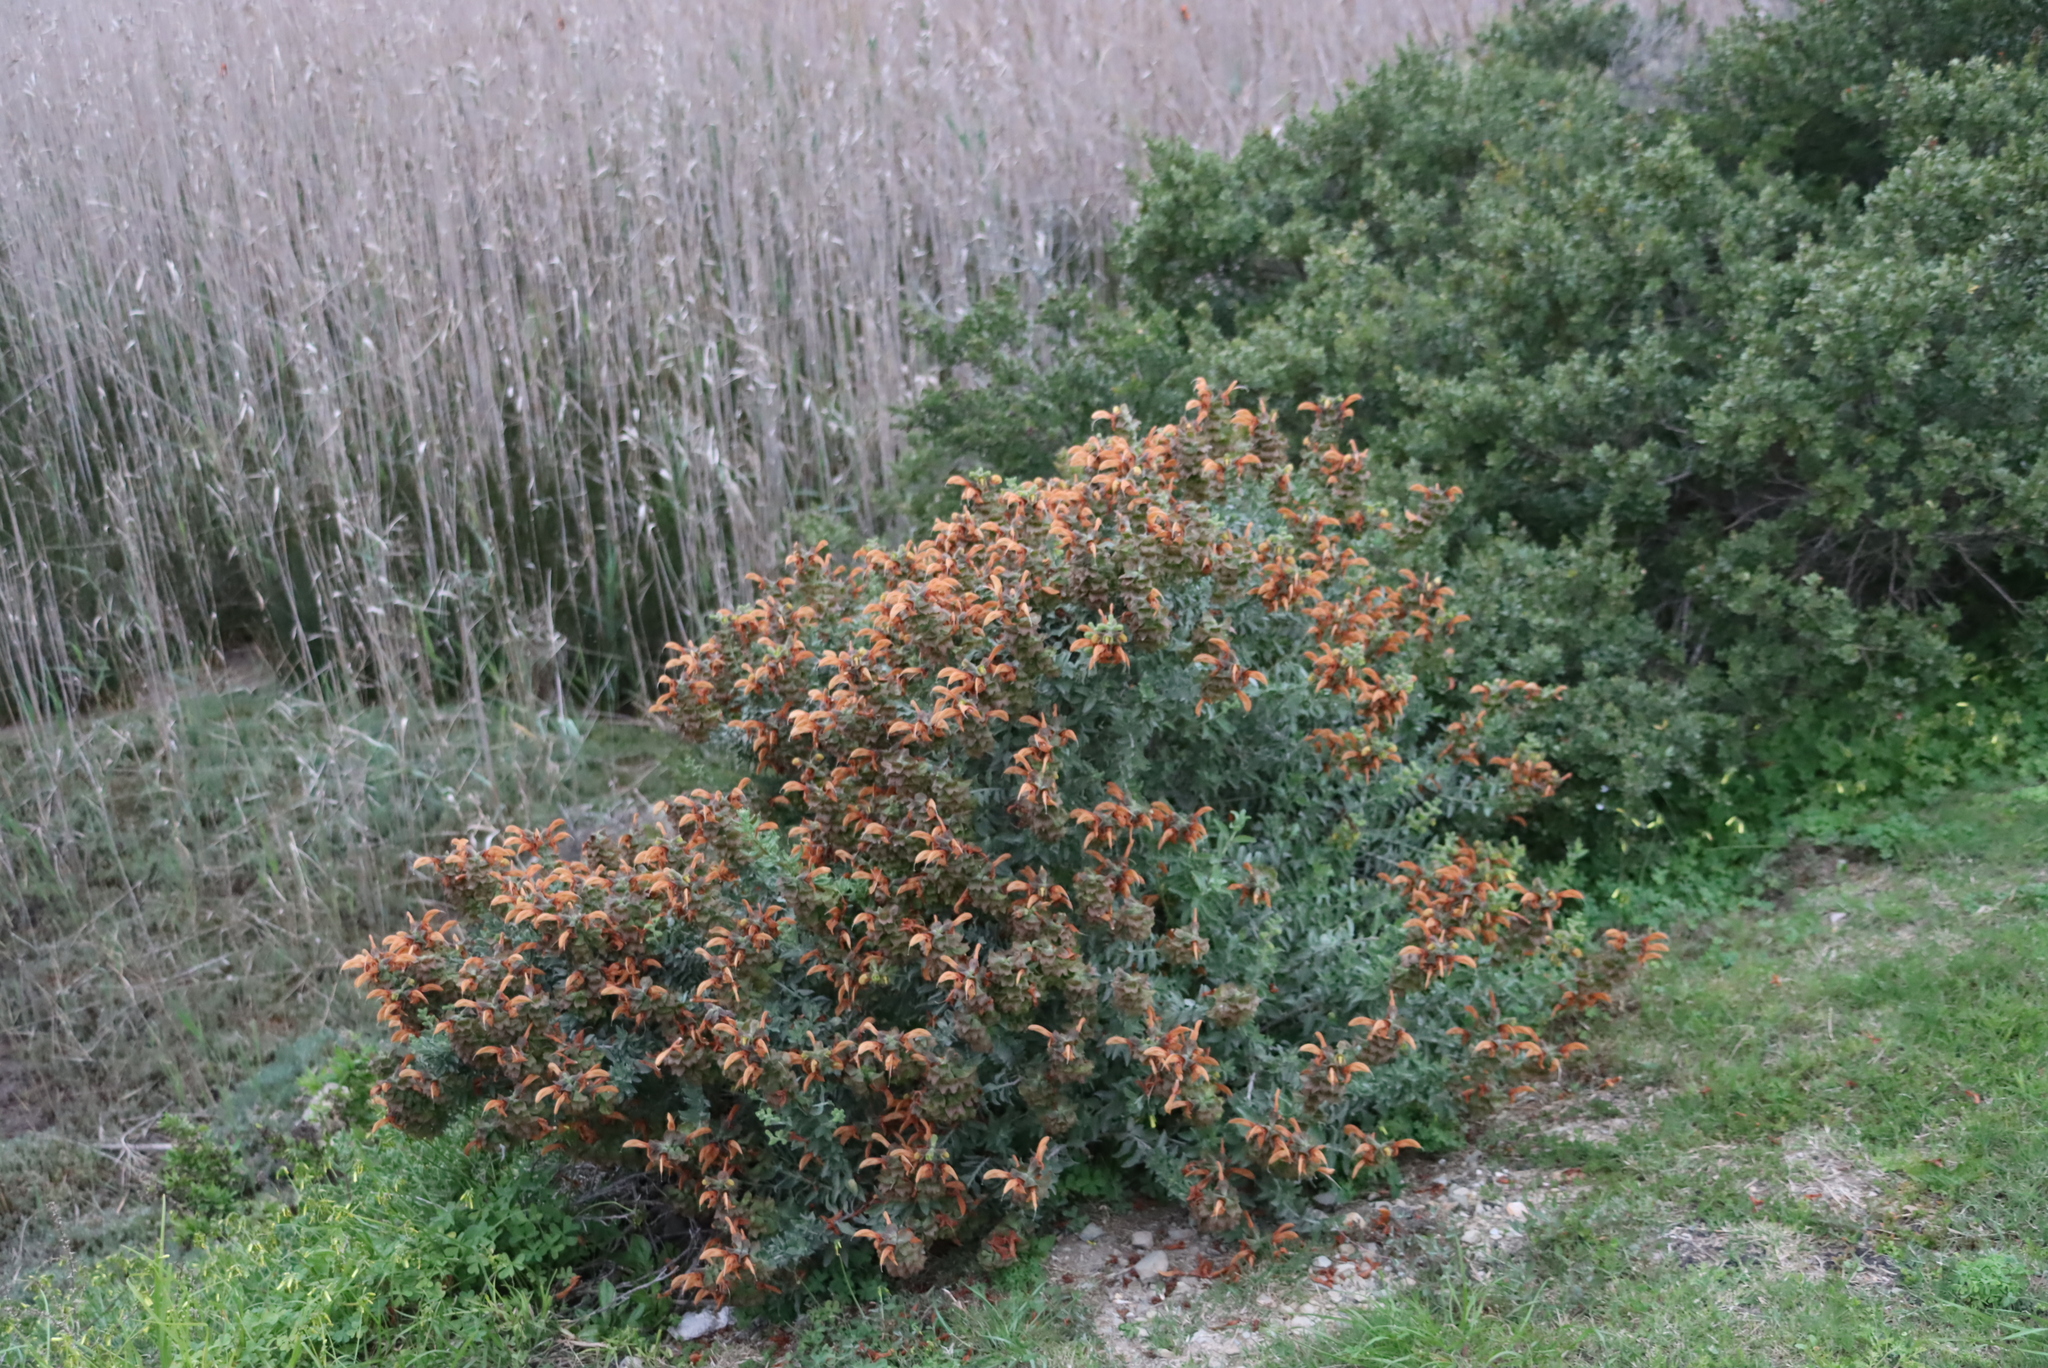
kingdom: Plantae
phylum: Tracheophyta
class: Magnoliopsida
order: Lamiales
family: Lamiaceae
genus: Salvia
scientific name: Salvia aurea
